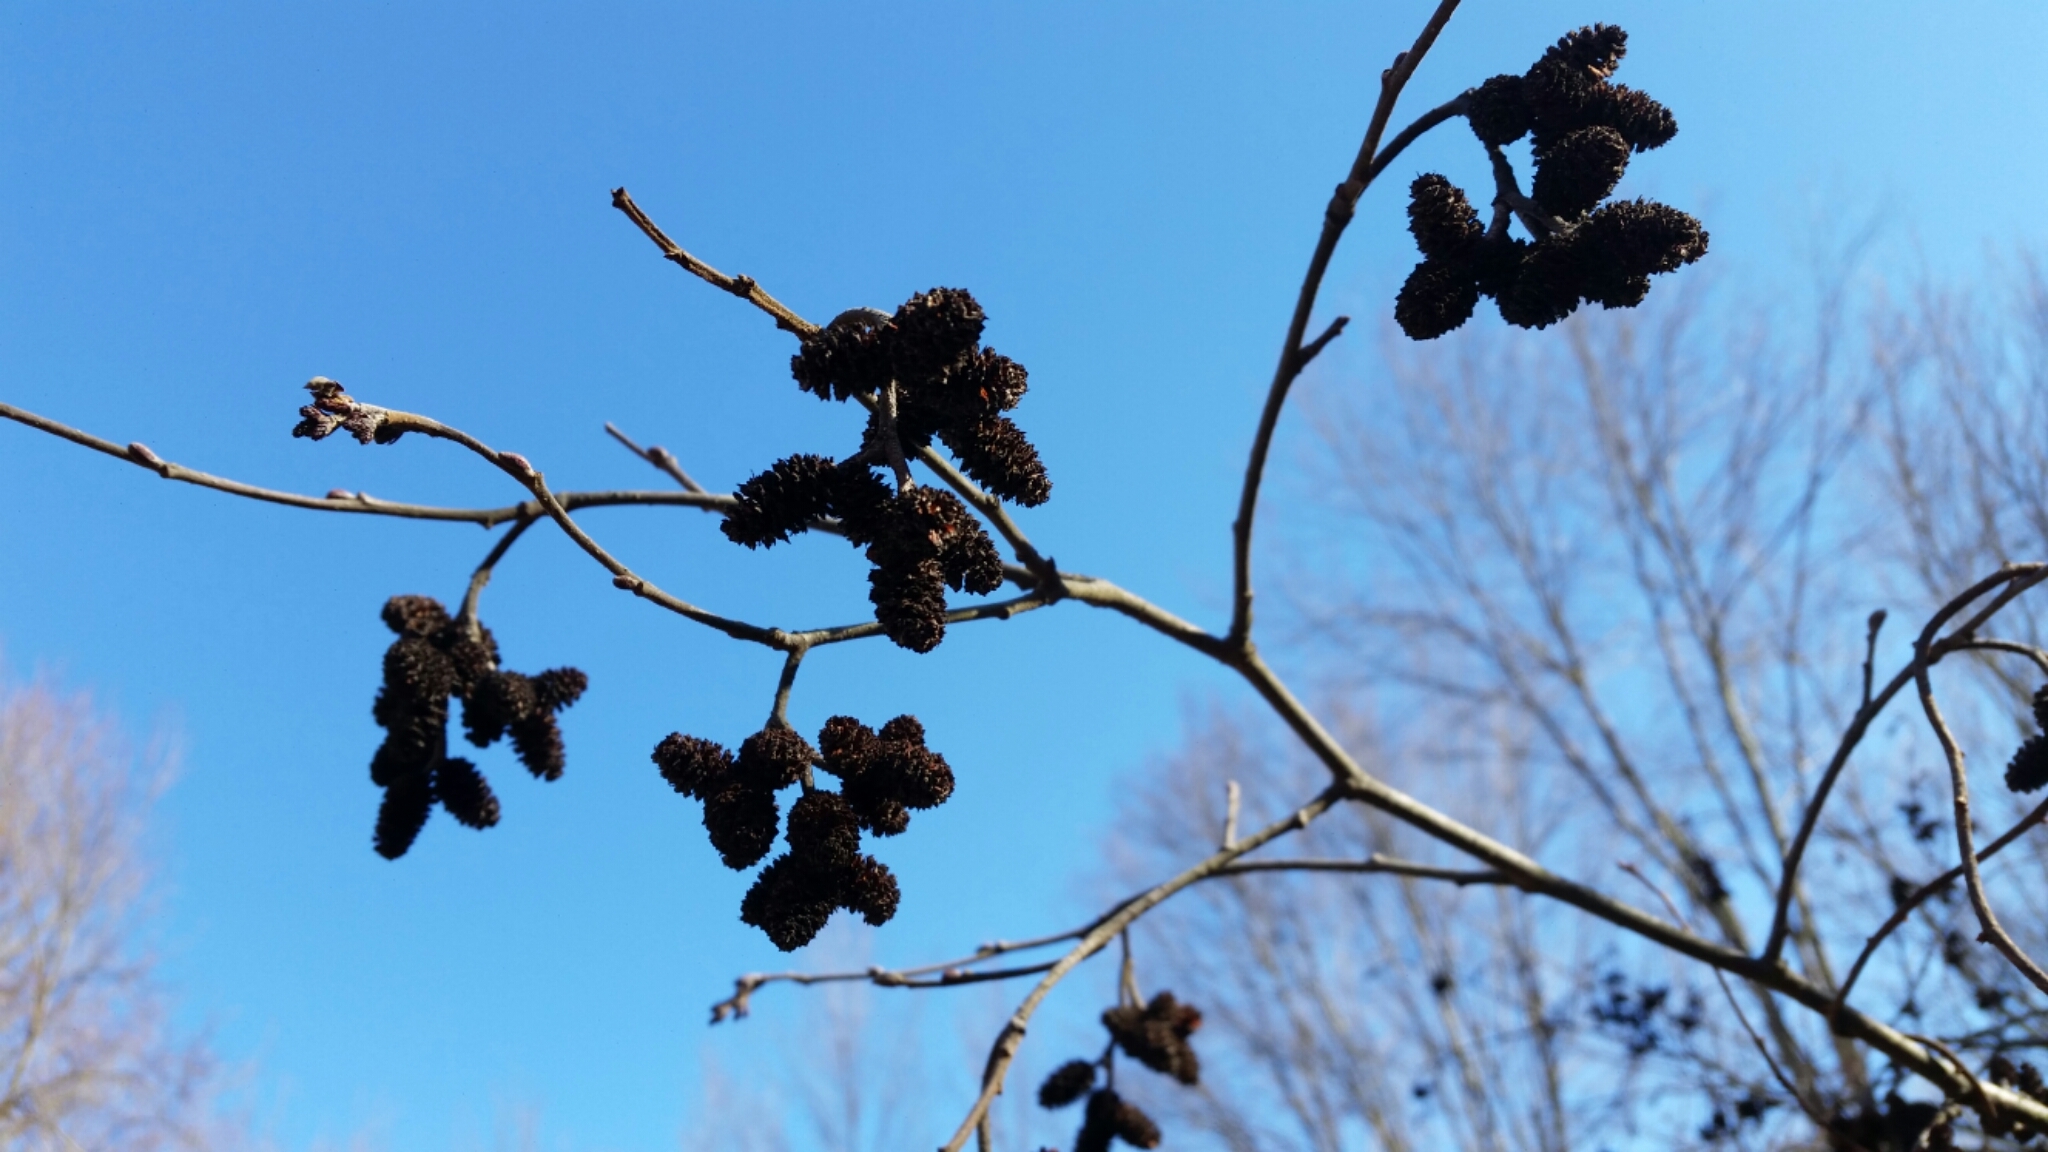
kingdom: Plantae
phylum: Tracheophyta
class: Magnoliopsida
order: Fagales
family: Betulaceae
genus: Alnus
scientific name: Alnus incana
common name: Grey alder
